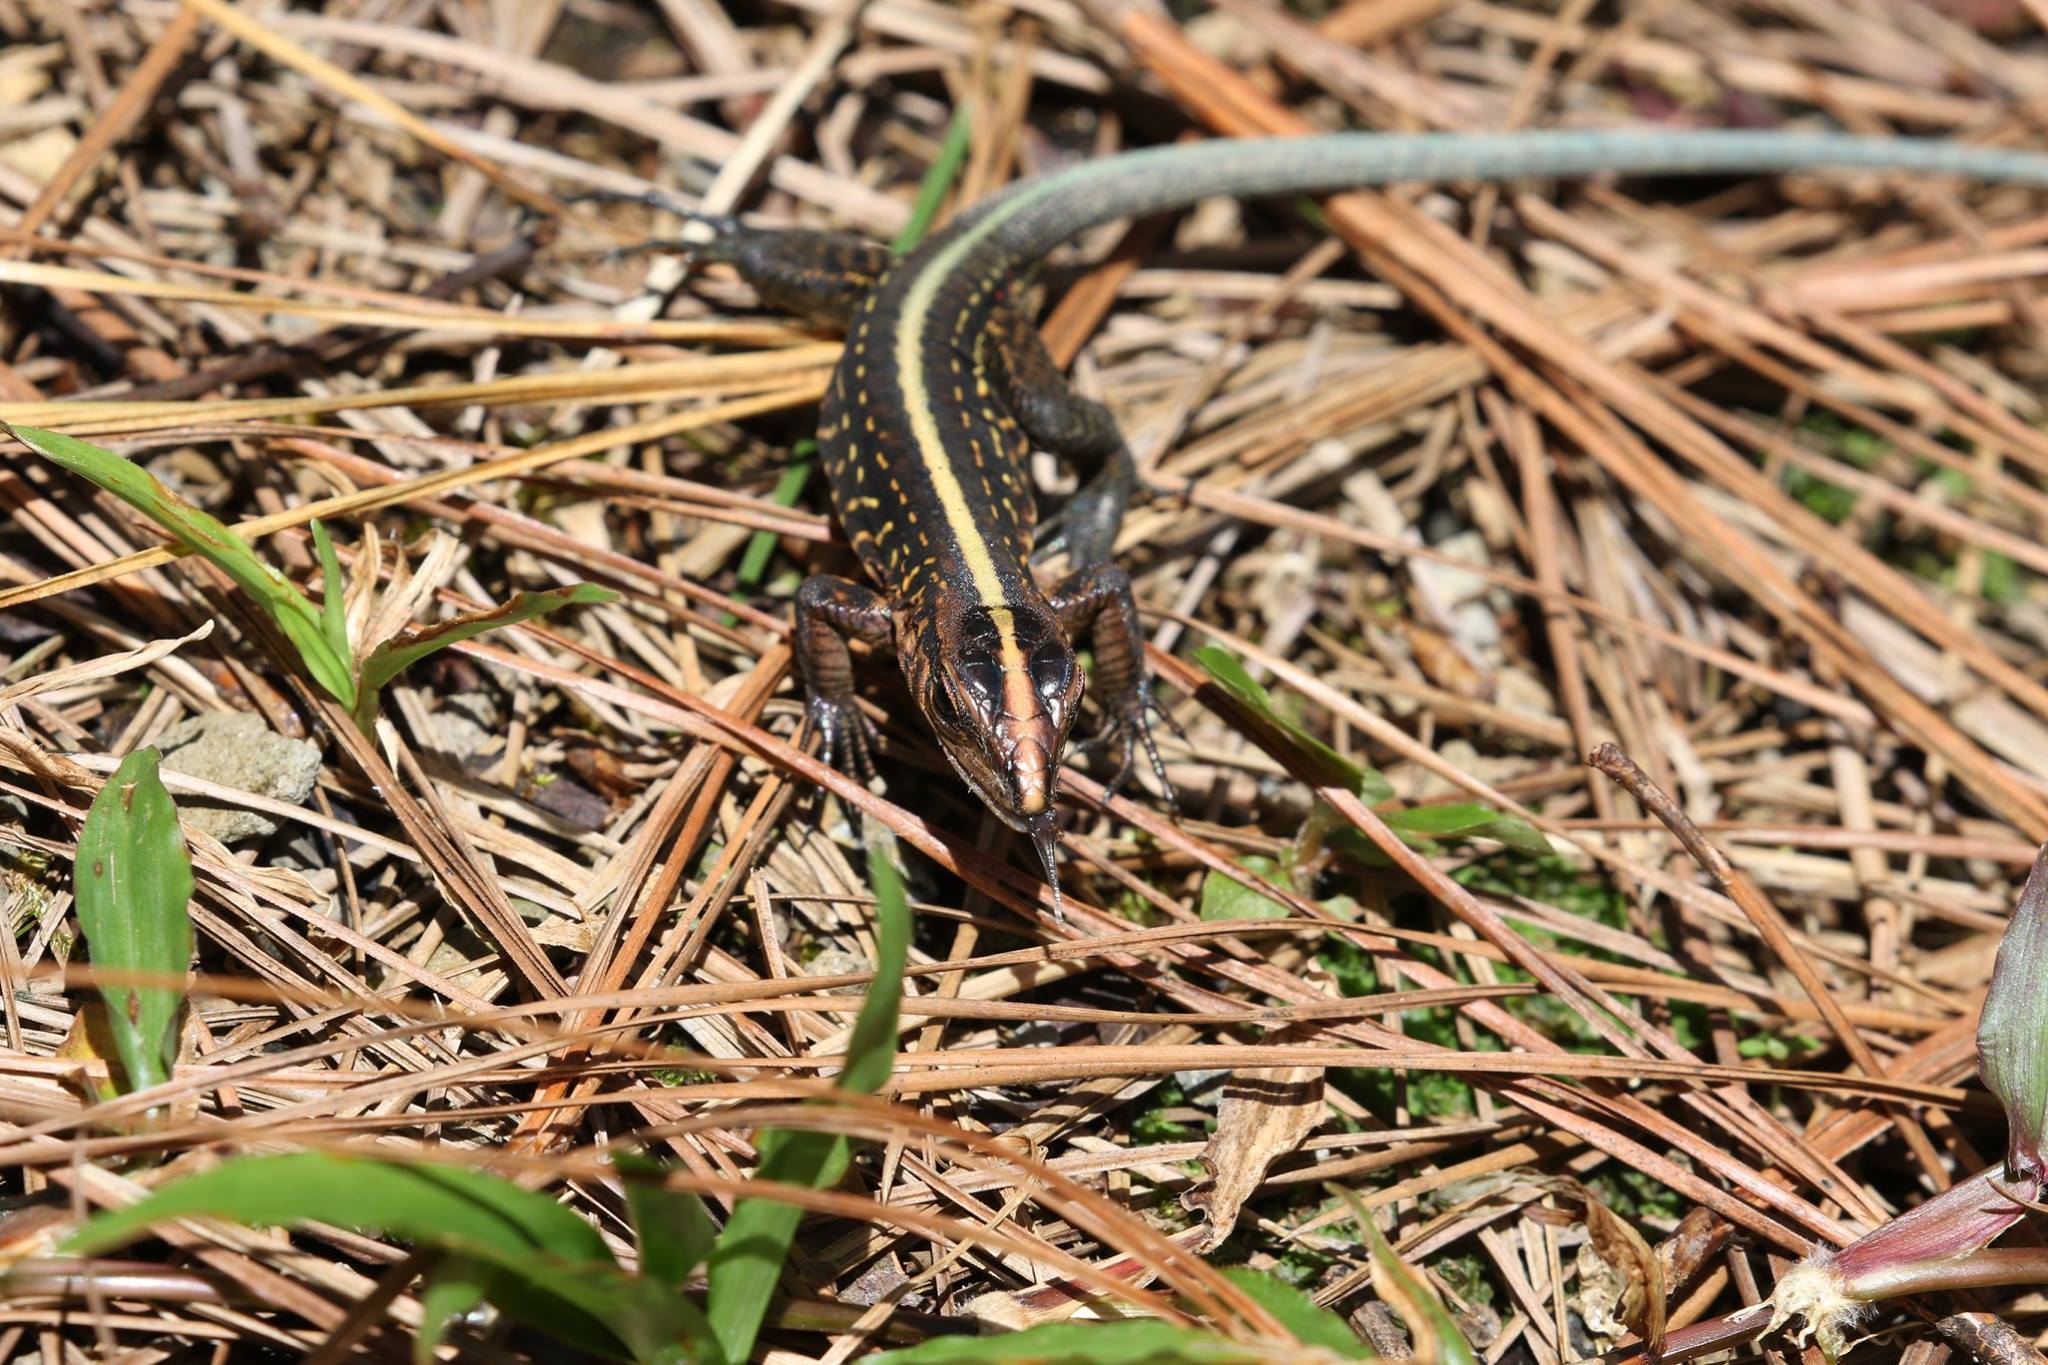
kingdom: Animalia
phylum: Chordata
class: Squamata
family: Teiidae
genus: Holcosus
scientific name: Holcosus festivus
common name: Middle american ameiva
